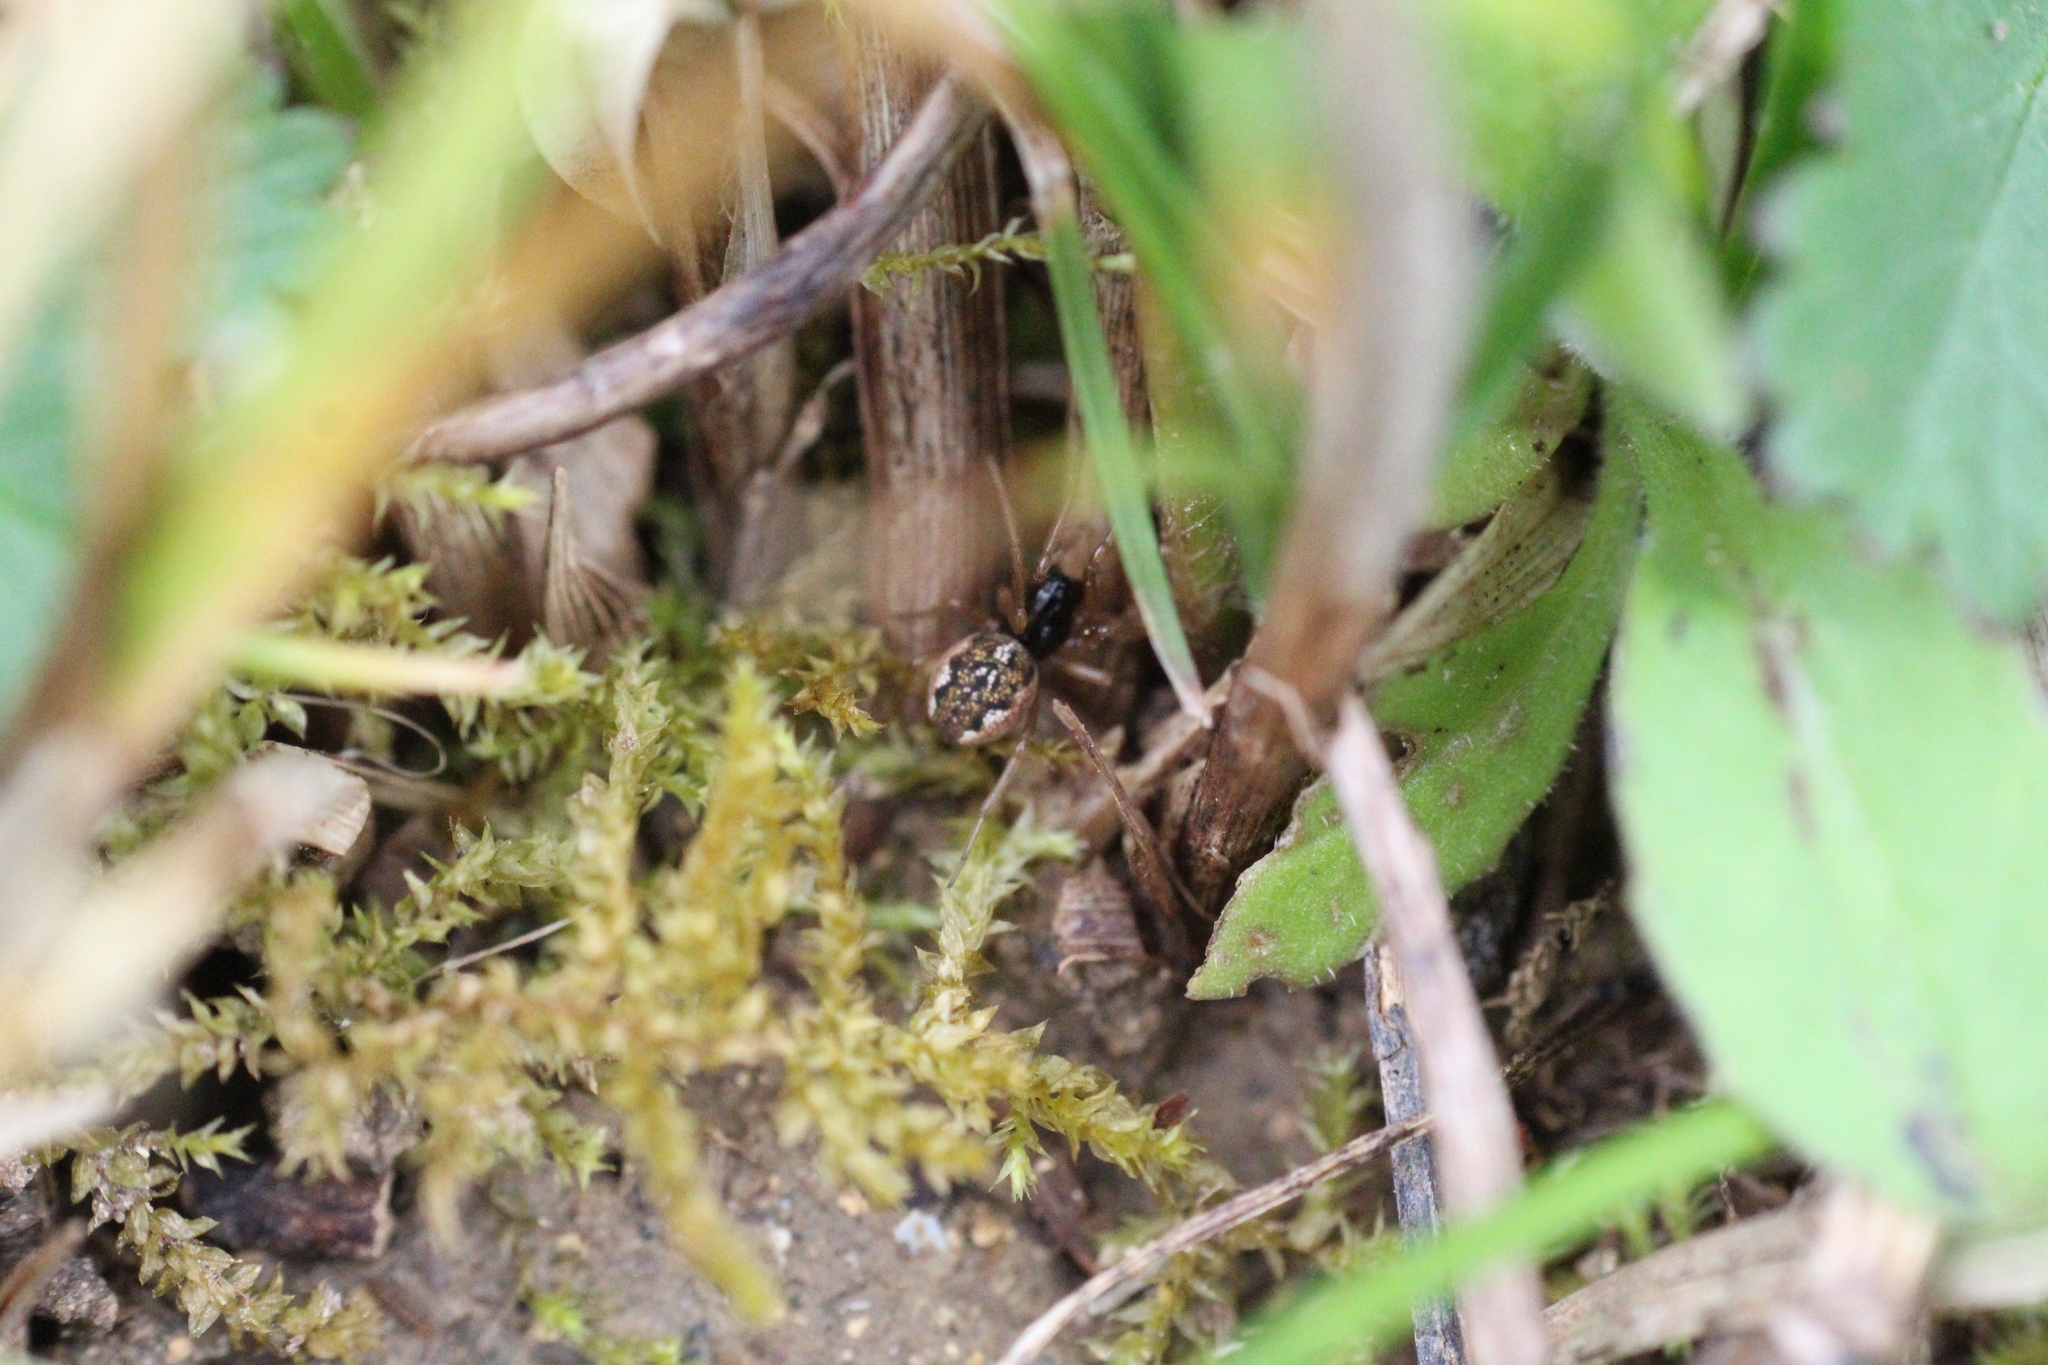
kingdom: Animalia
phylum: Arthropoda
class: Arachnida
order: Araneae
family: Tetragnathidae
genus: Pachygnatha
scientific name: Pachygnatha degeeri
